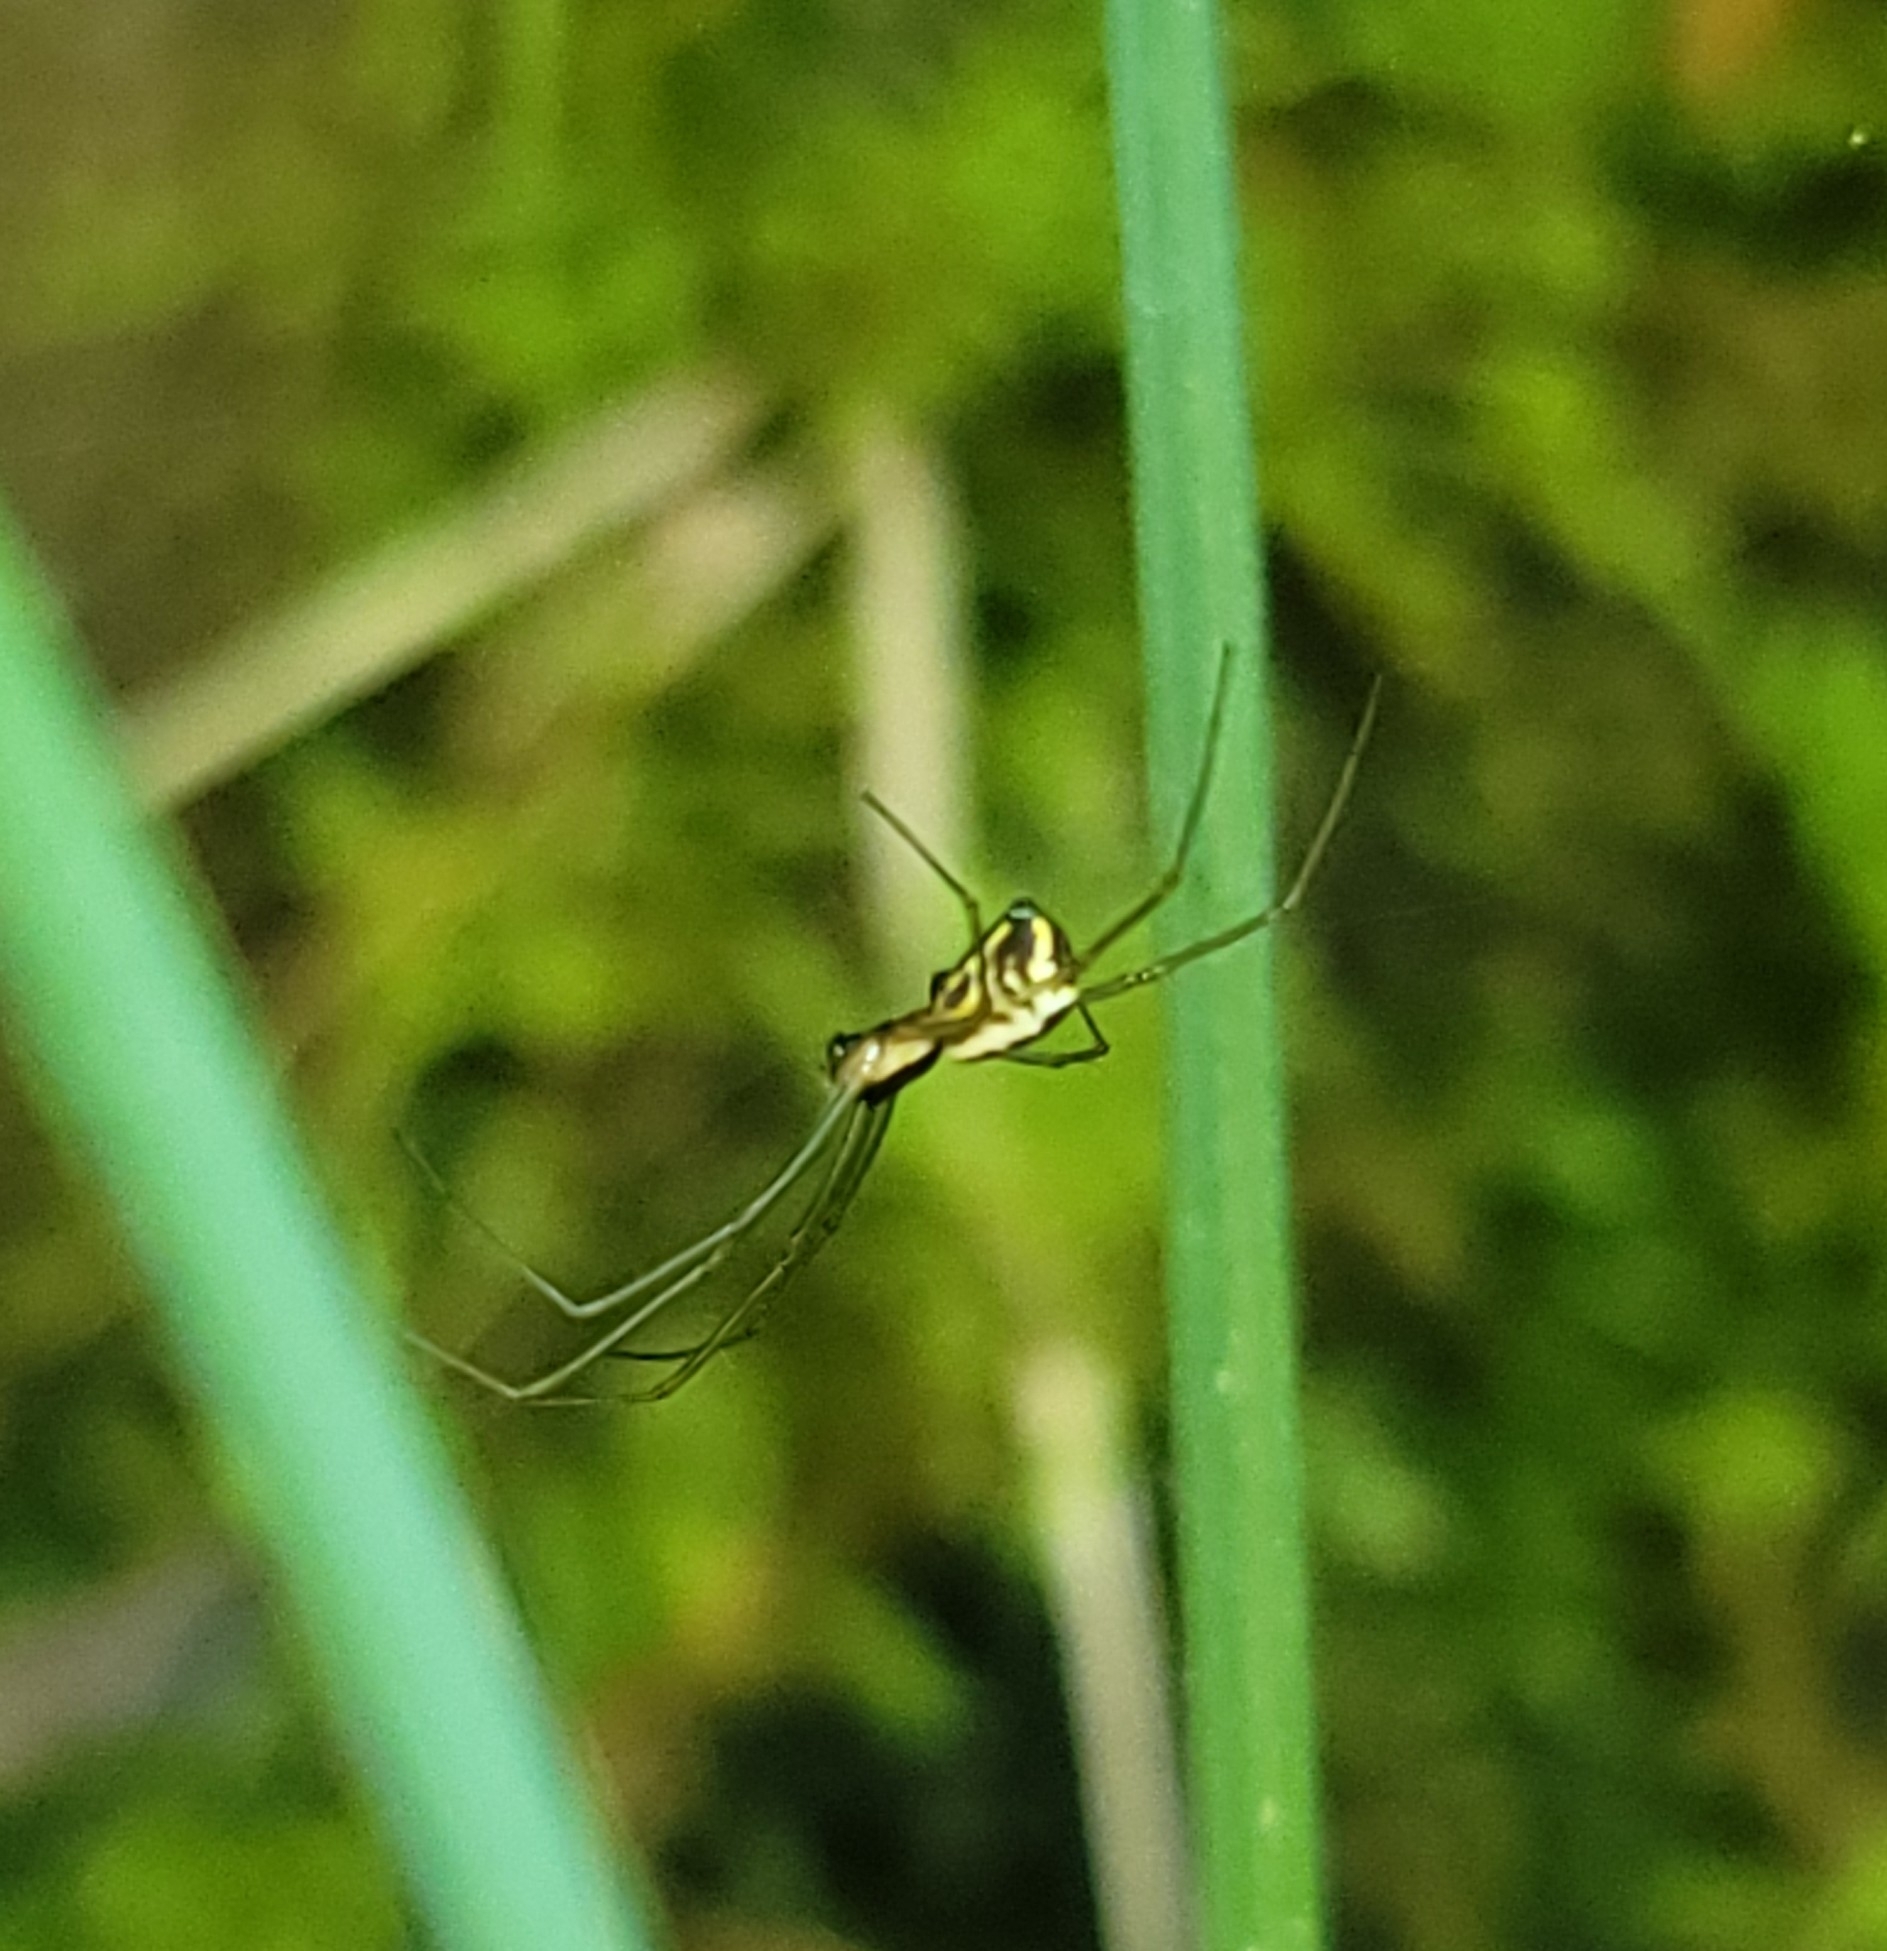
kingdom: Animalia
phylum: Arthropoda
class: Arachnida
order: Araneae
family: Linyphiidae
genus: Neriene
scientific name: Neriene radiata
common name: Filmy dome spider
